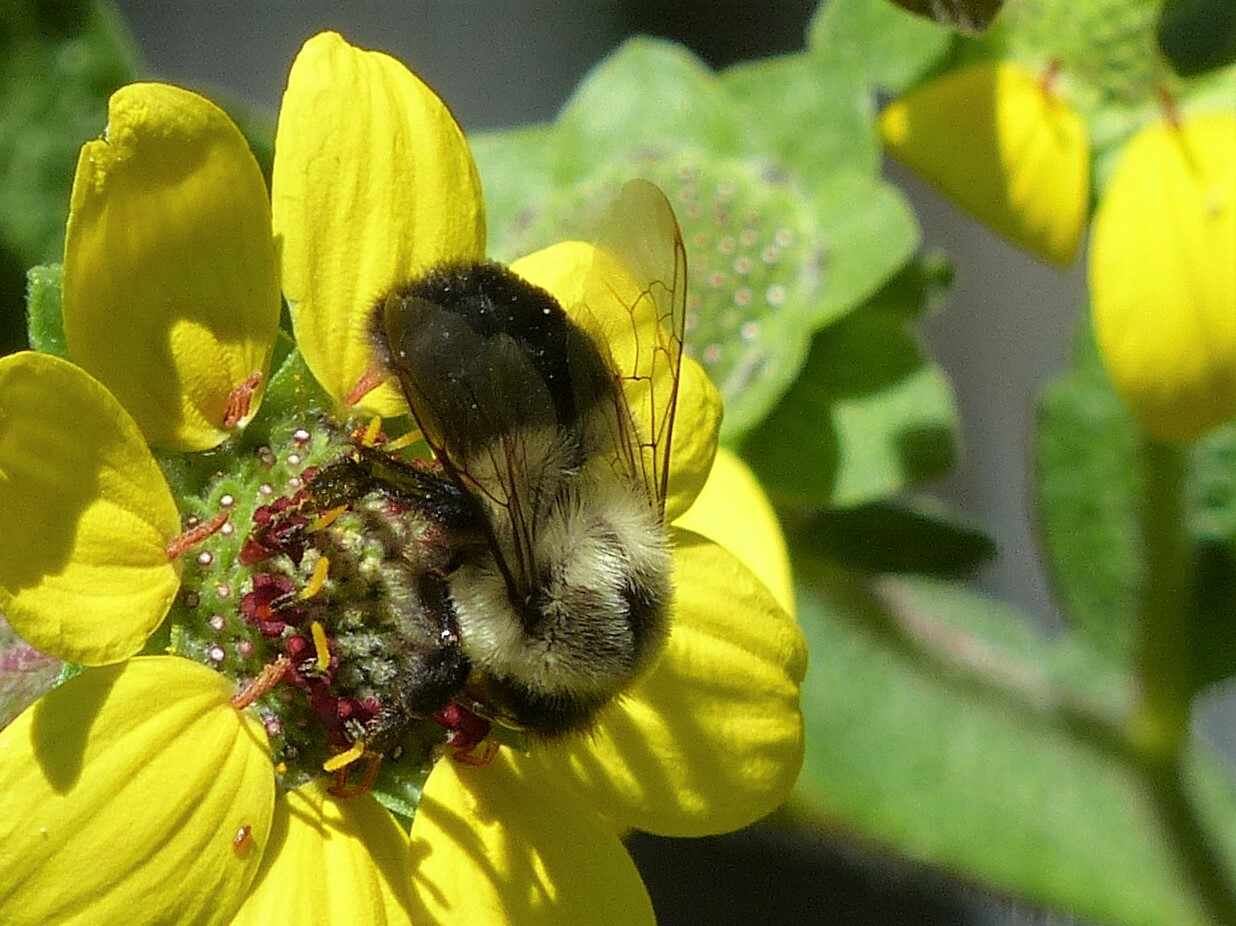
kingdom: Animalia
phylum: Arthropoda
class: Insecta
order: Hymenoptera
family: Apidae
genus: Bombus
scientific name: Bombus impatiens
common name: Common eastern bumble bee
